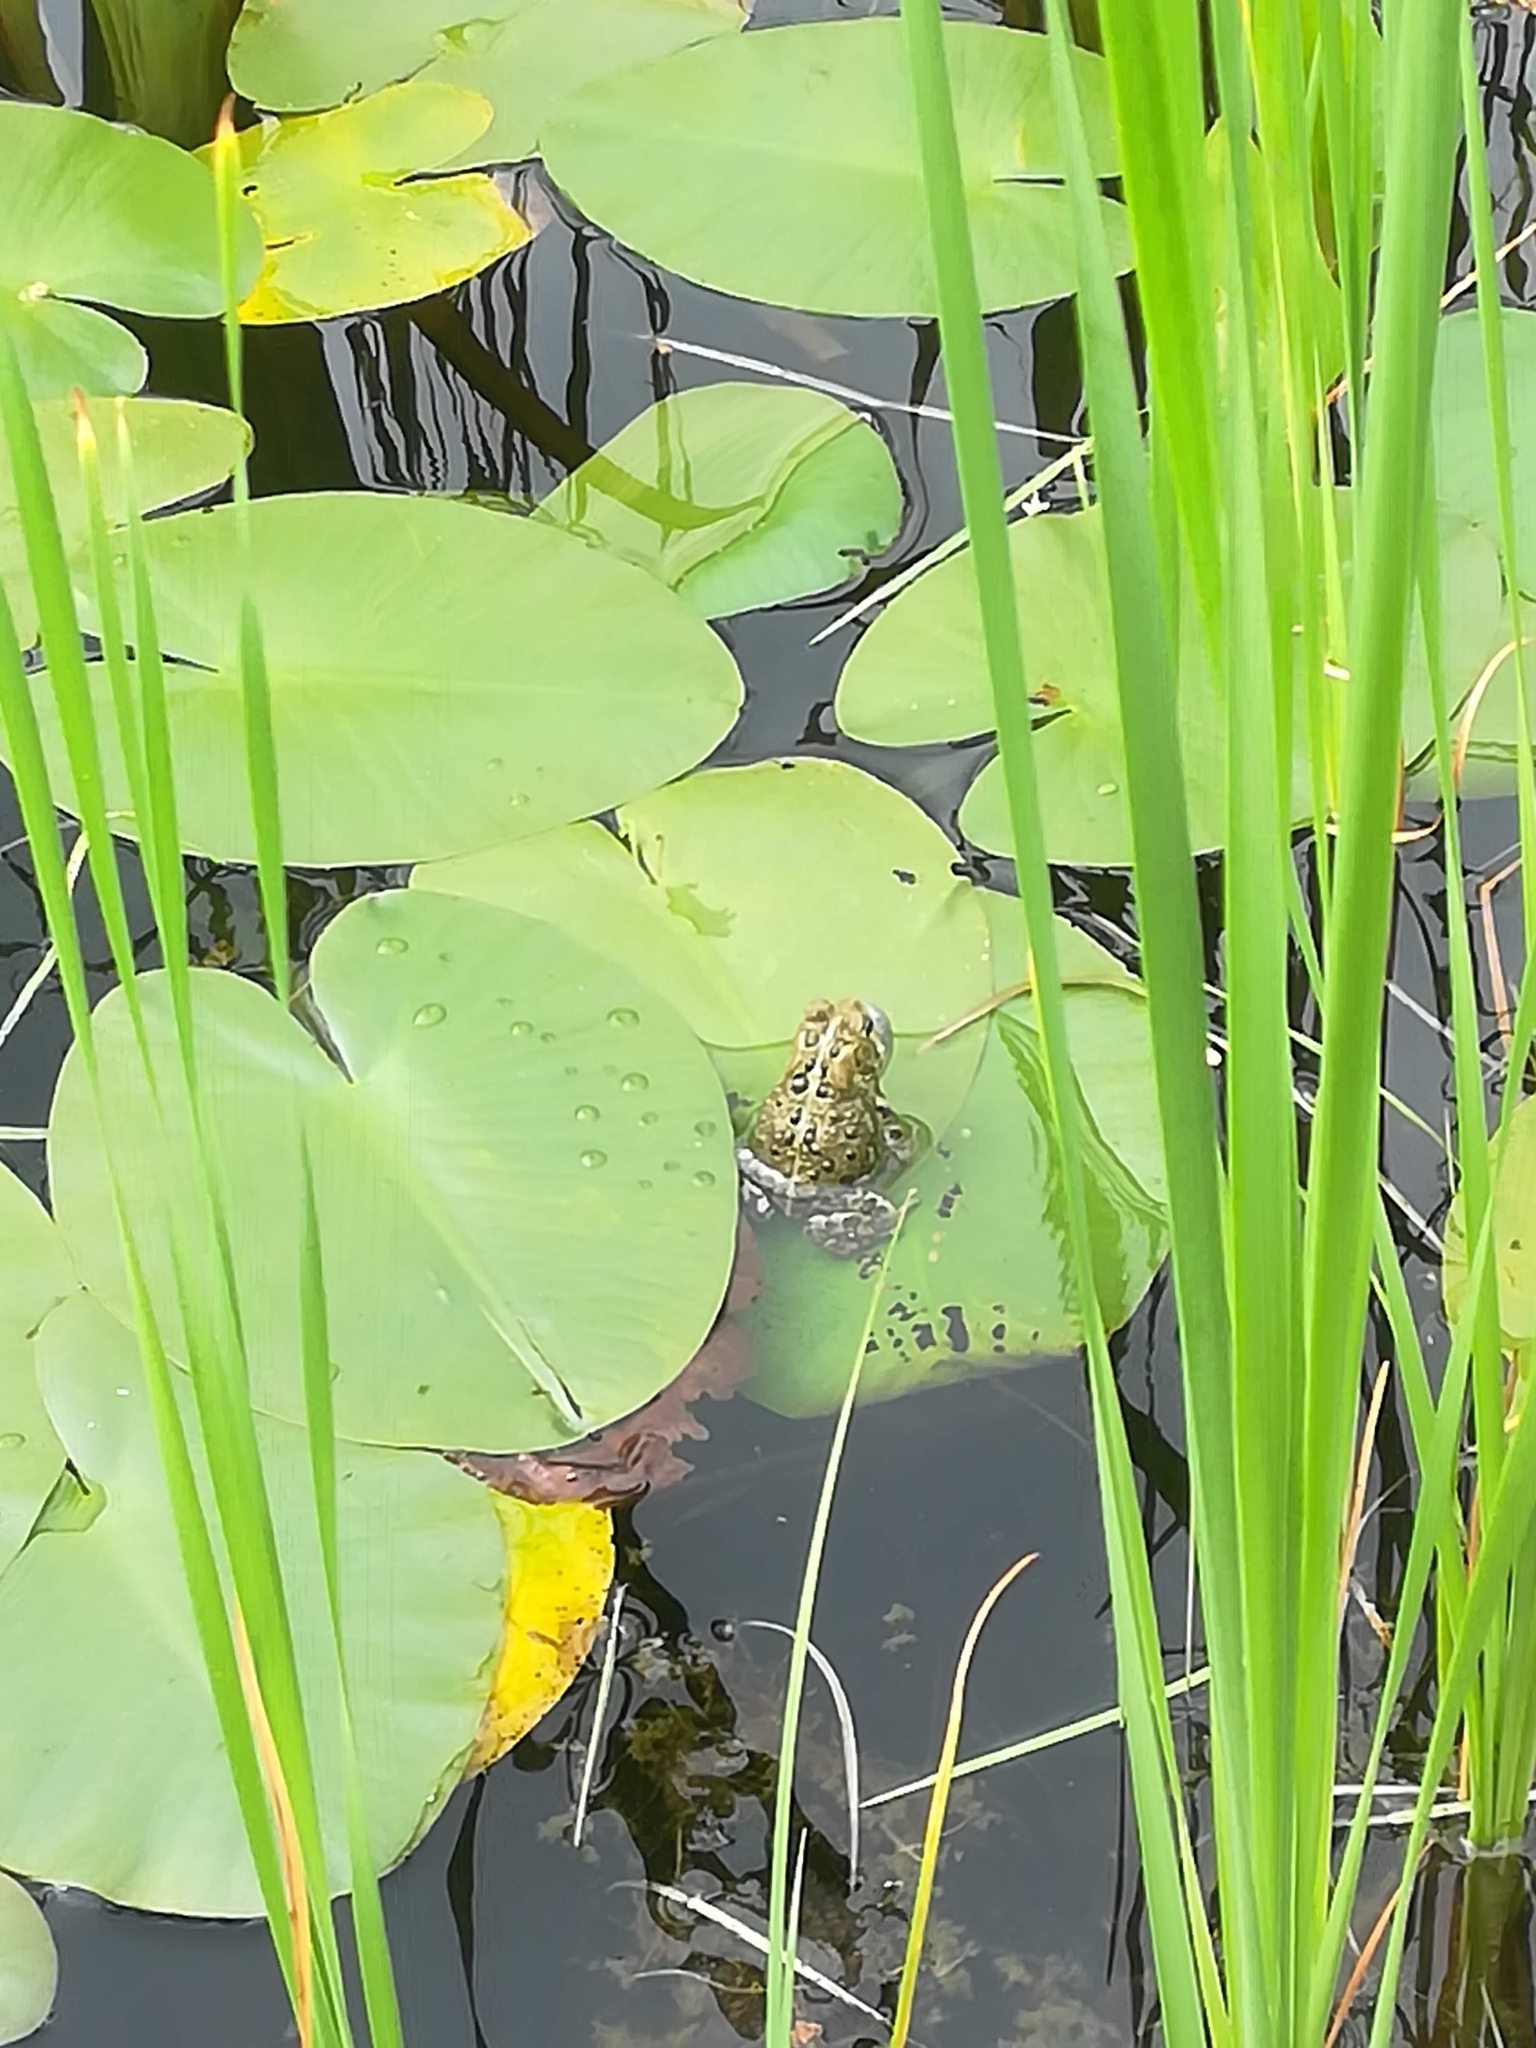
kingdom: Animalia
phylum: Chordata
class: Amphibia
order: Anura
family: Bufonidae
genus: Anaxyrus
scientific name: Anaxyrus americanus
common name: American toad
